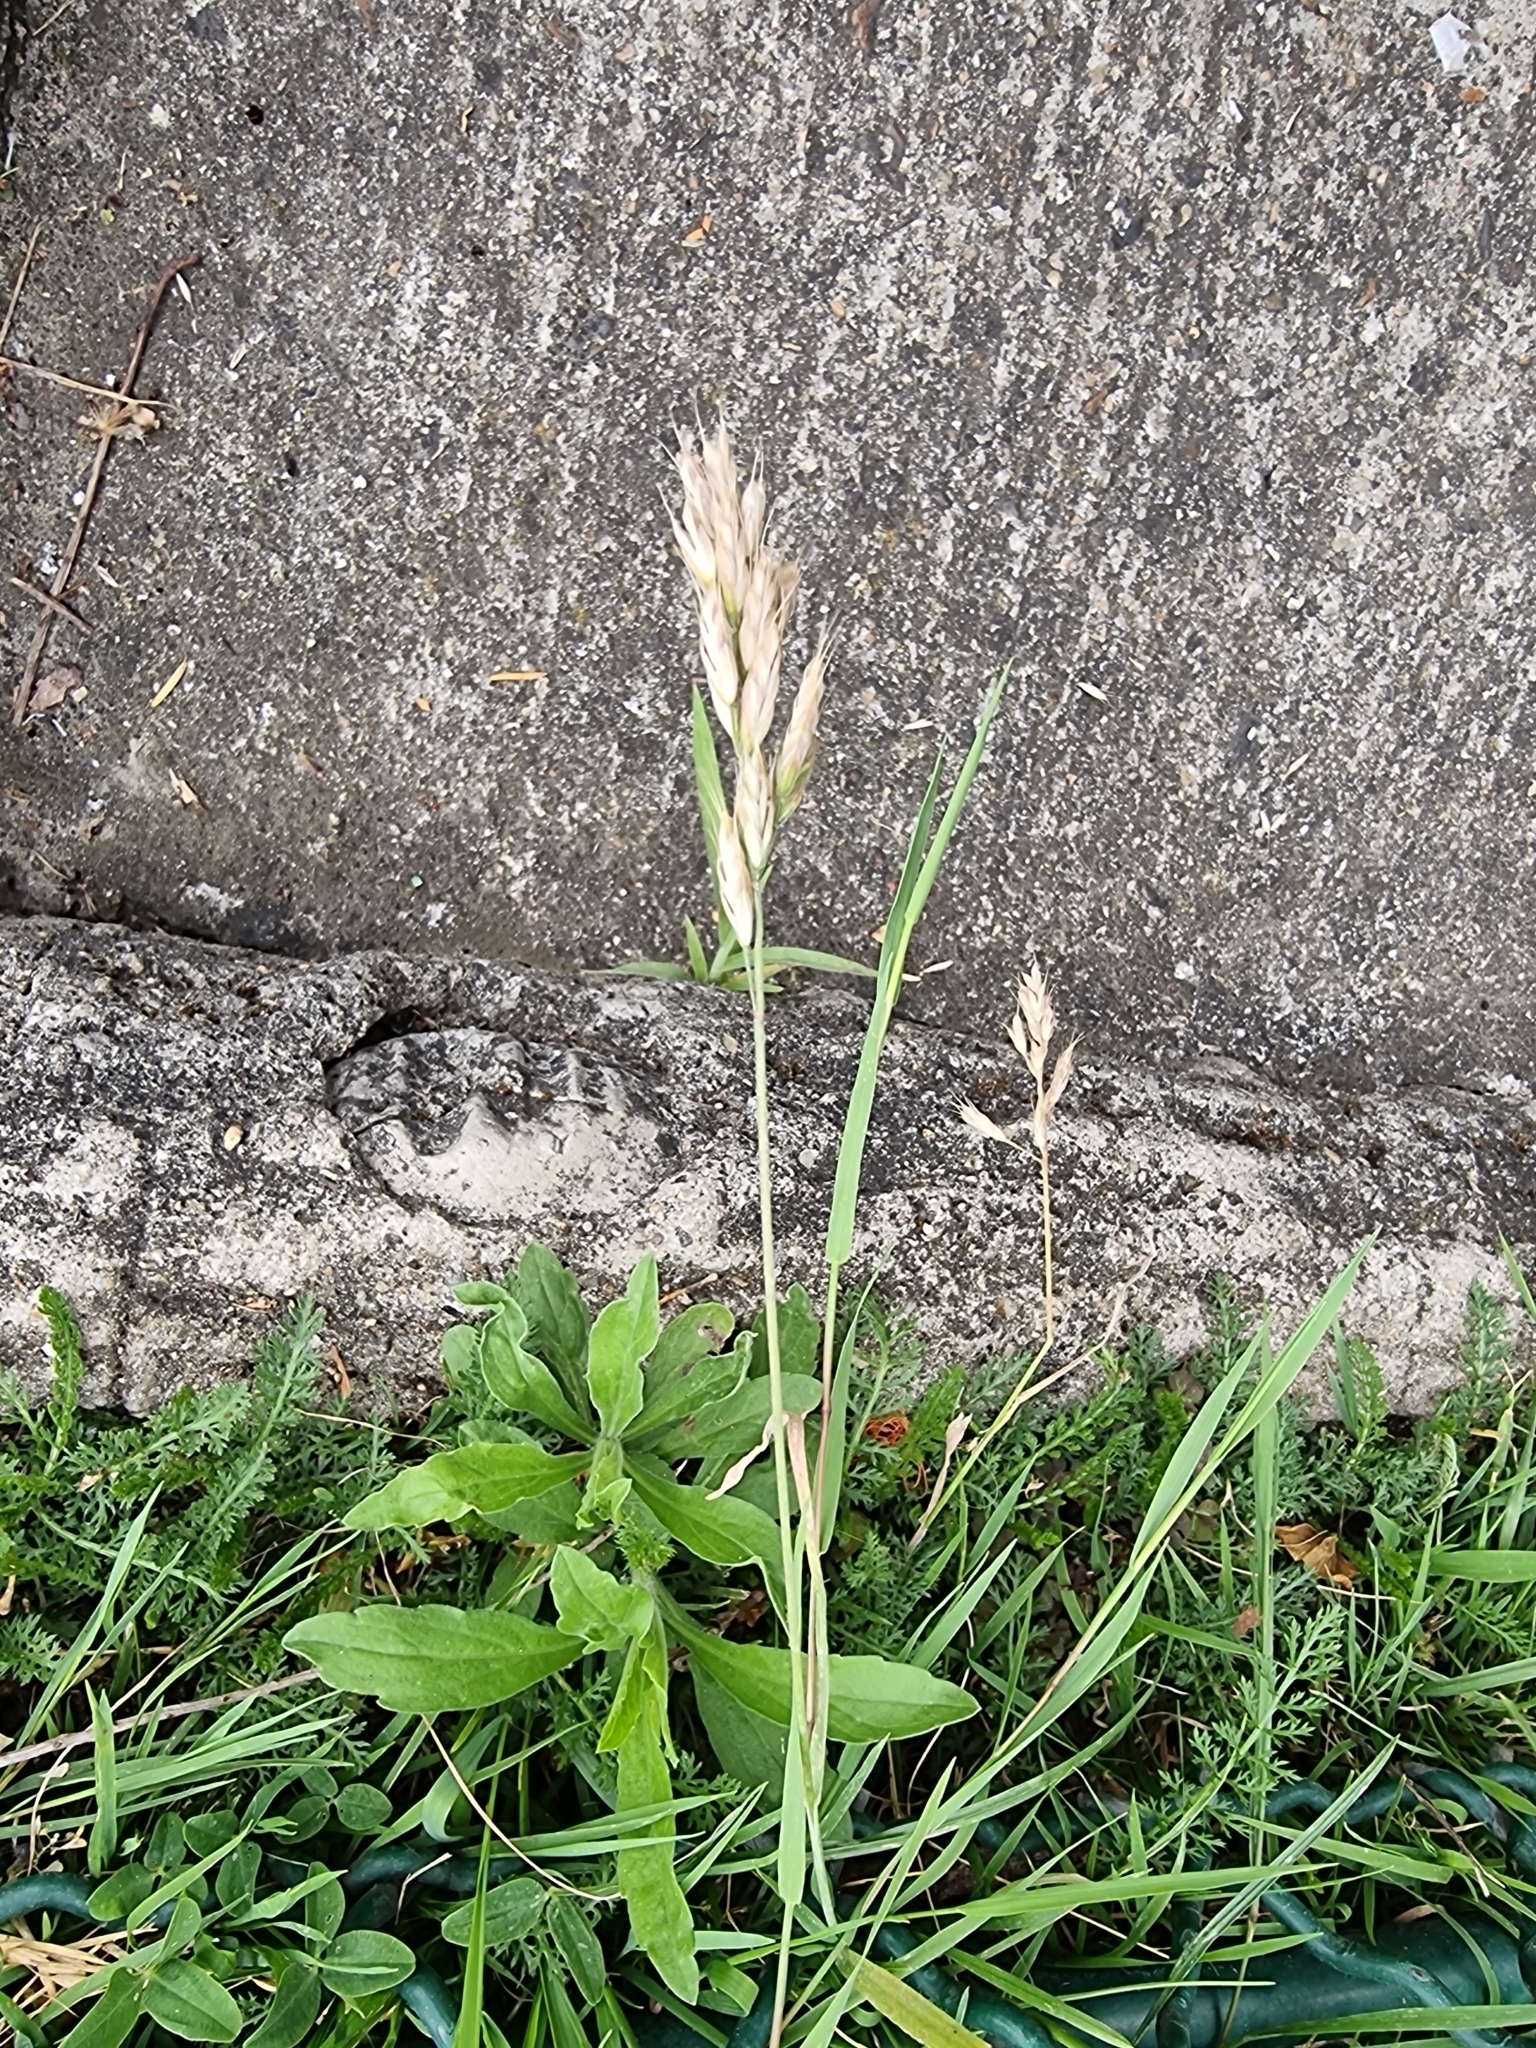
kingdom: Plantae
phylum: Tracheophyta
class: Liliopsida
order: Poales
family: Poaceae
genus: Bromus
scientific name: Bromus hordeaceus
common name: Soft brome
